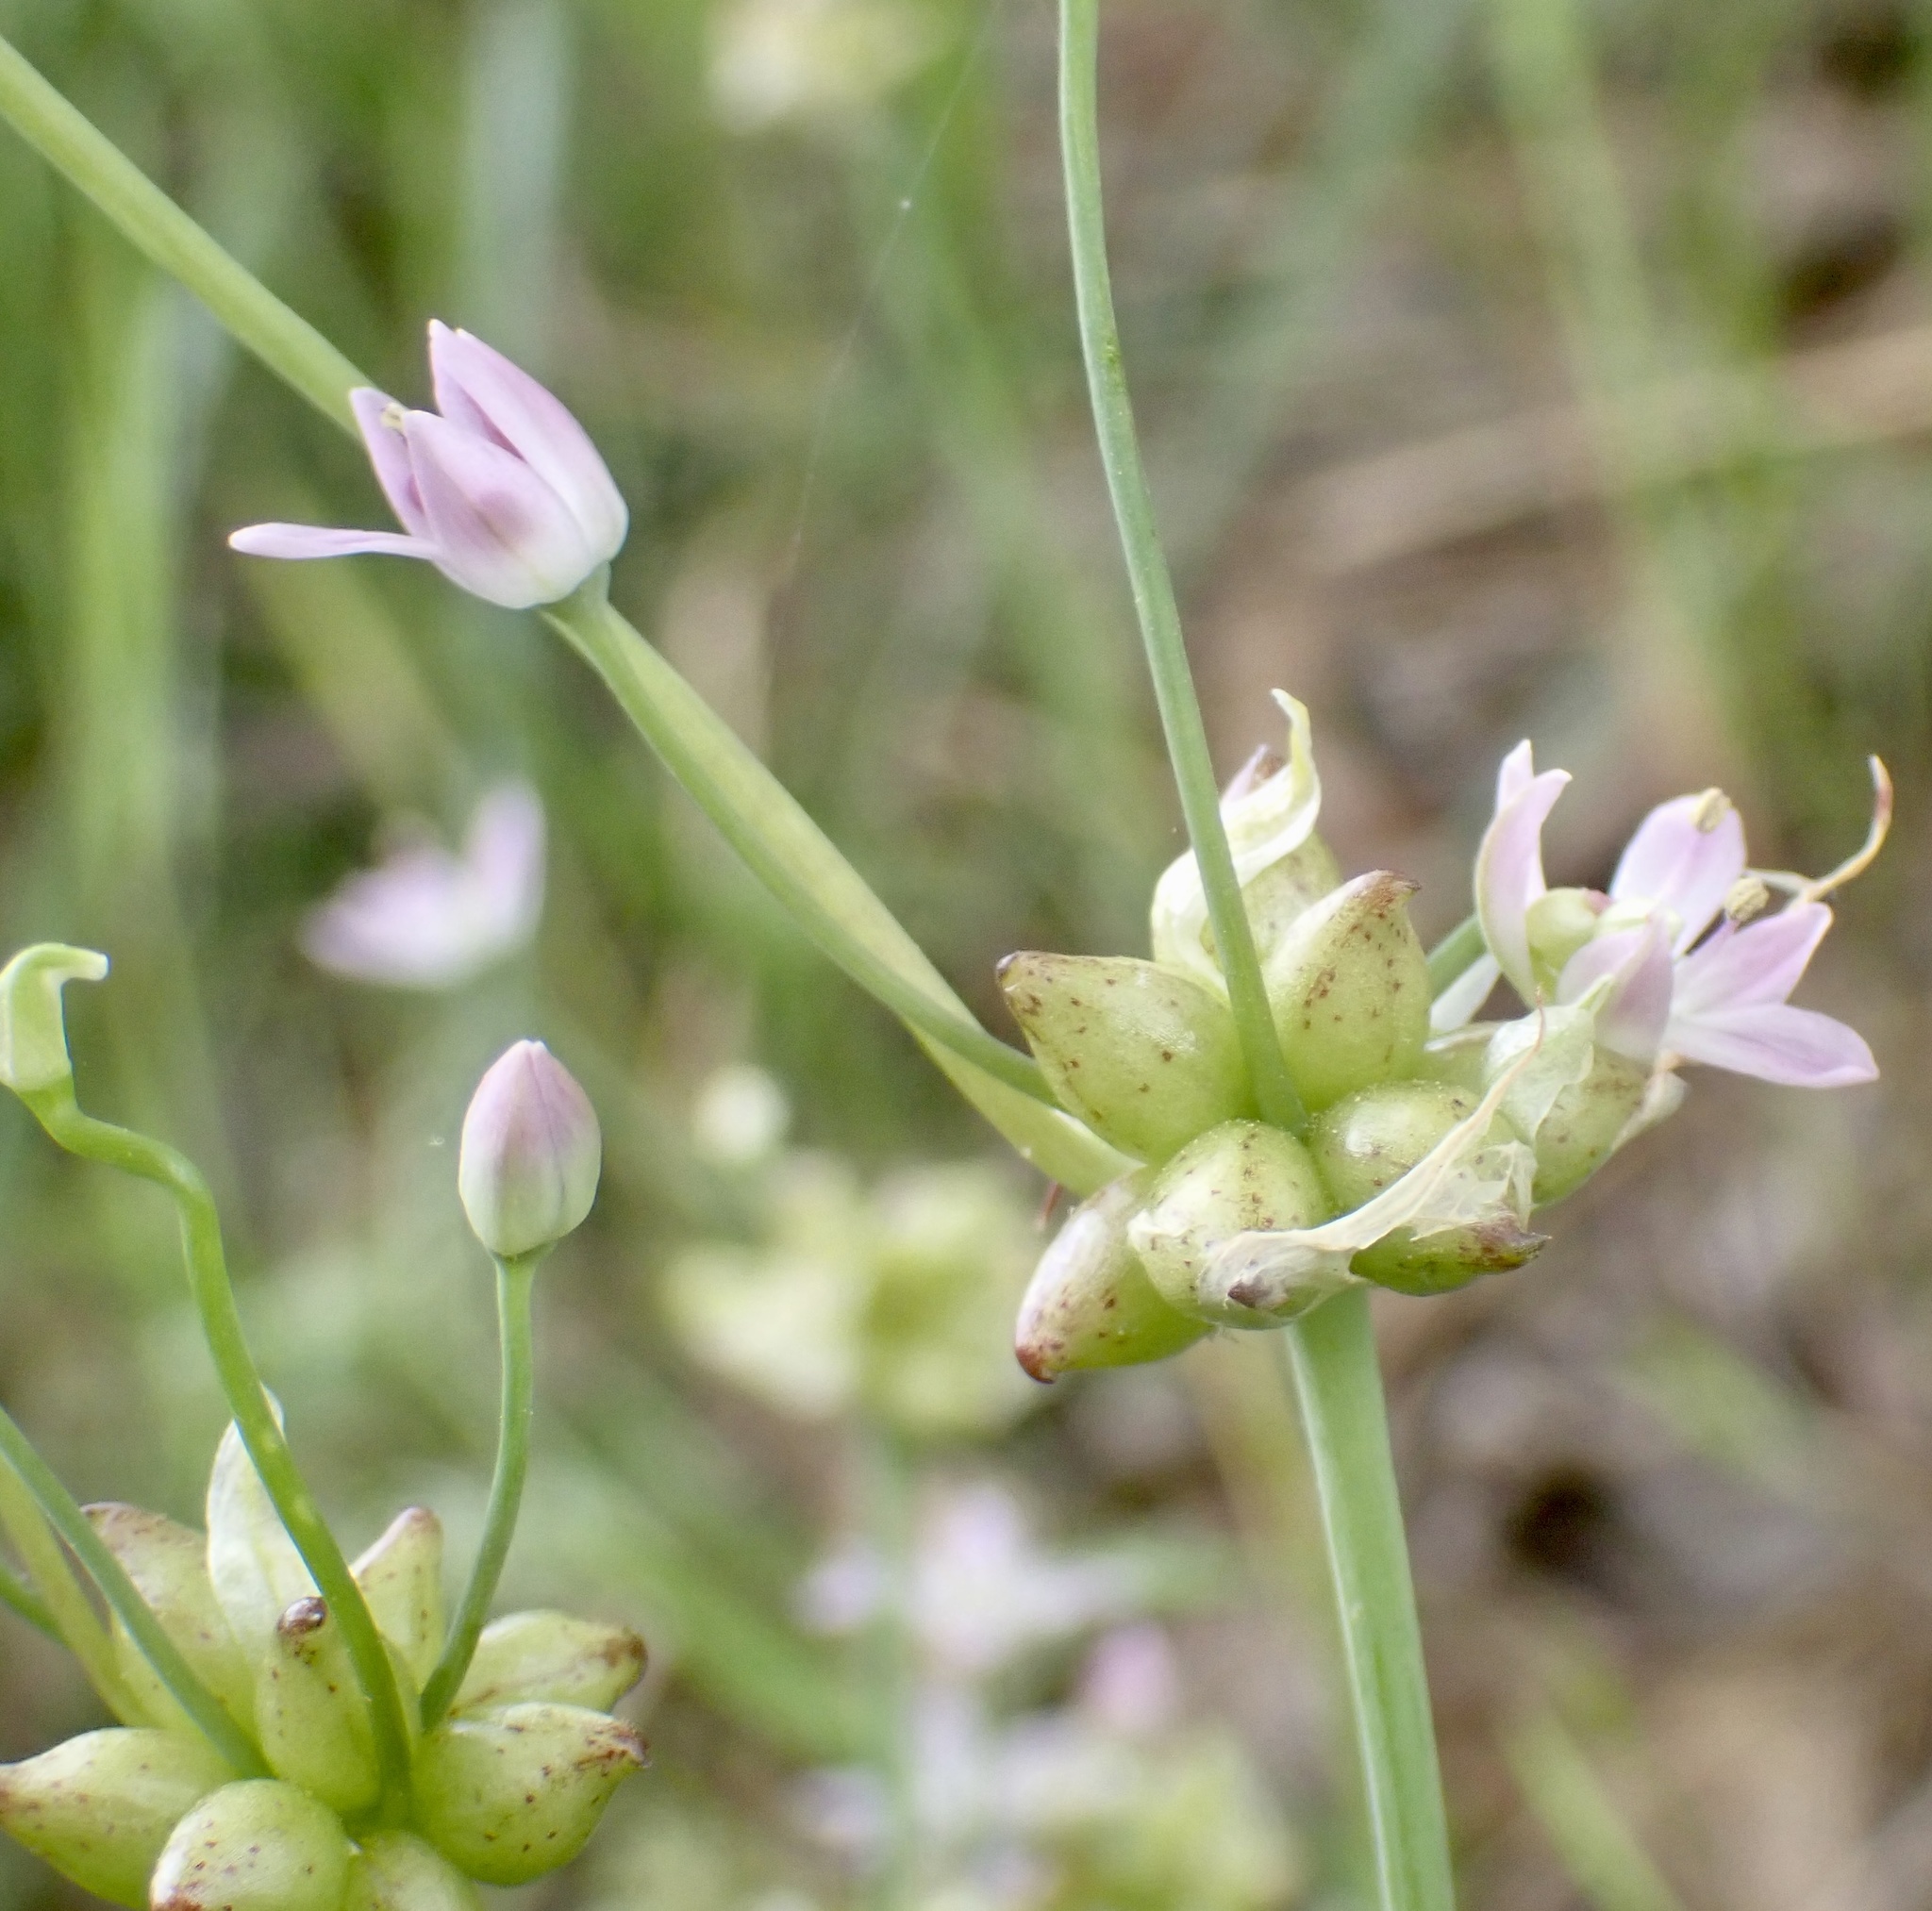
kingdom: Plantae
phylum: Tracheophyta
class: Liliopsida
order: Asparagales
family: Amaryllidaceae
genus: Allium
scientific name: Allium canadense
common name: Meadow garlic
